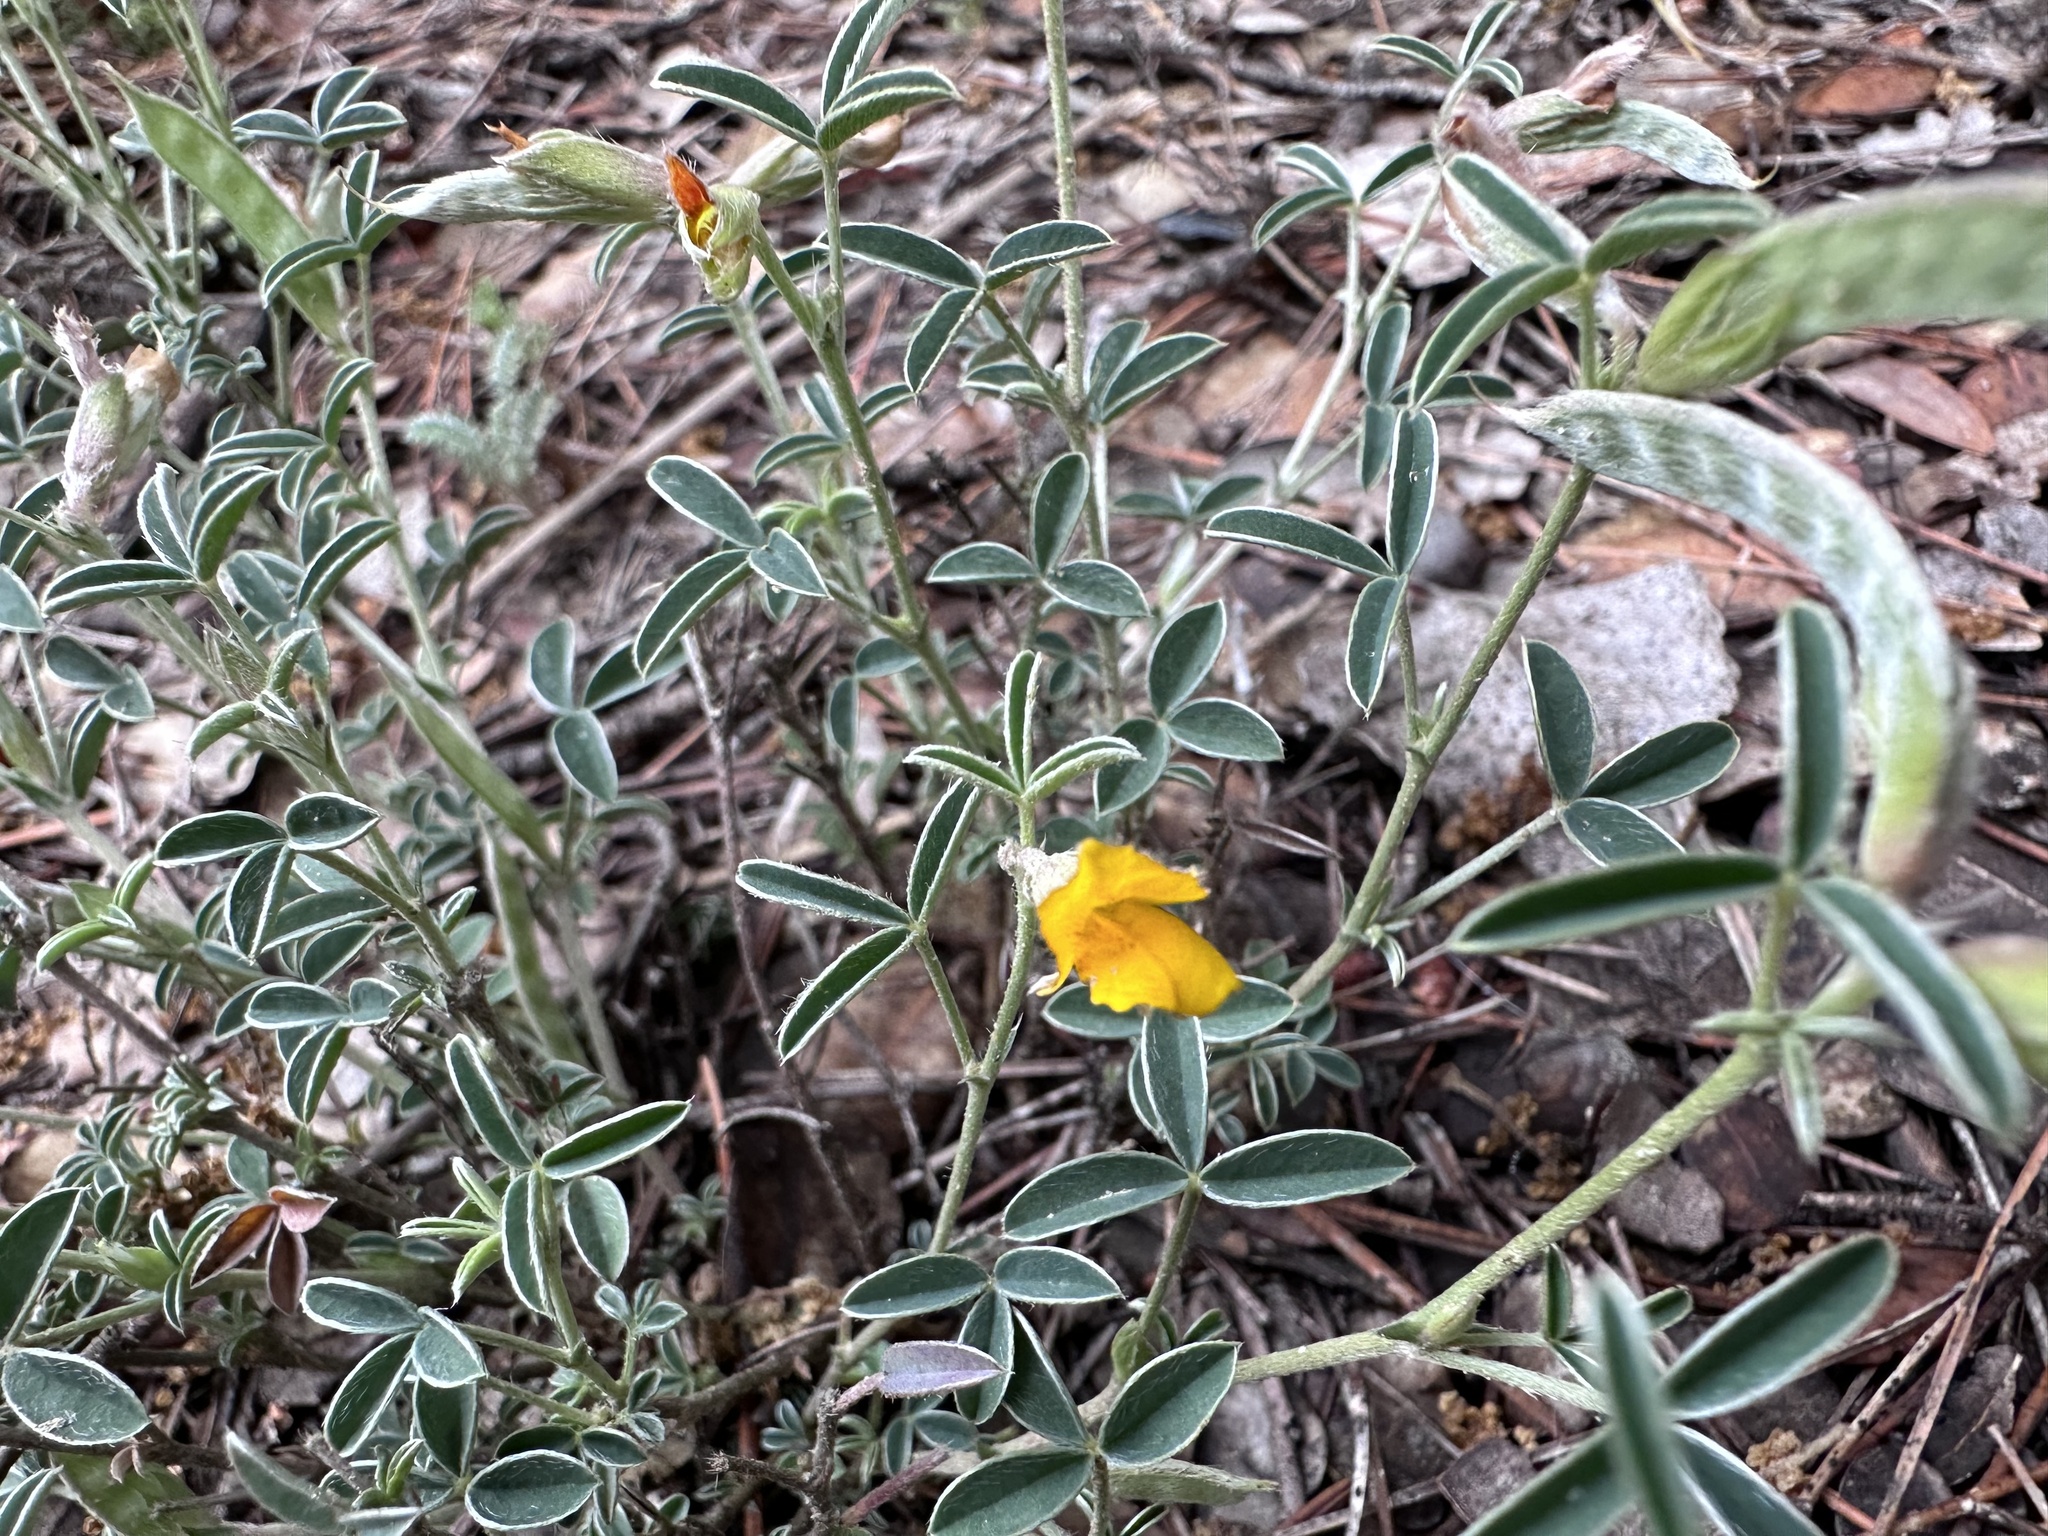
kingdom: Plantae
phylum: Tracheophyta
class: Magnoliopsida
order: Fabales
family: Fabaceae
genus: Argyrolobium
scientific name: Argyrolobium zanonii
